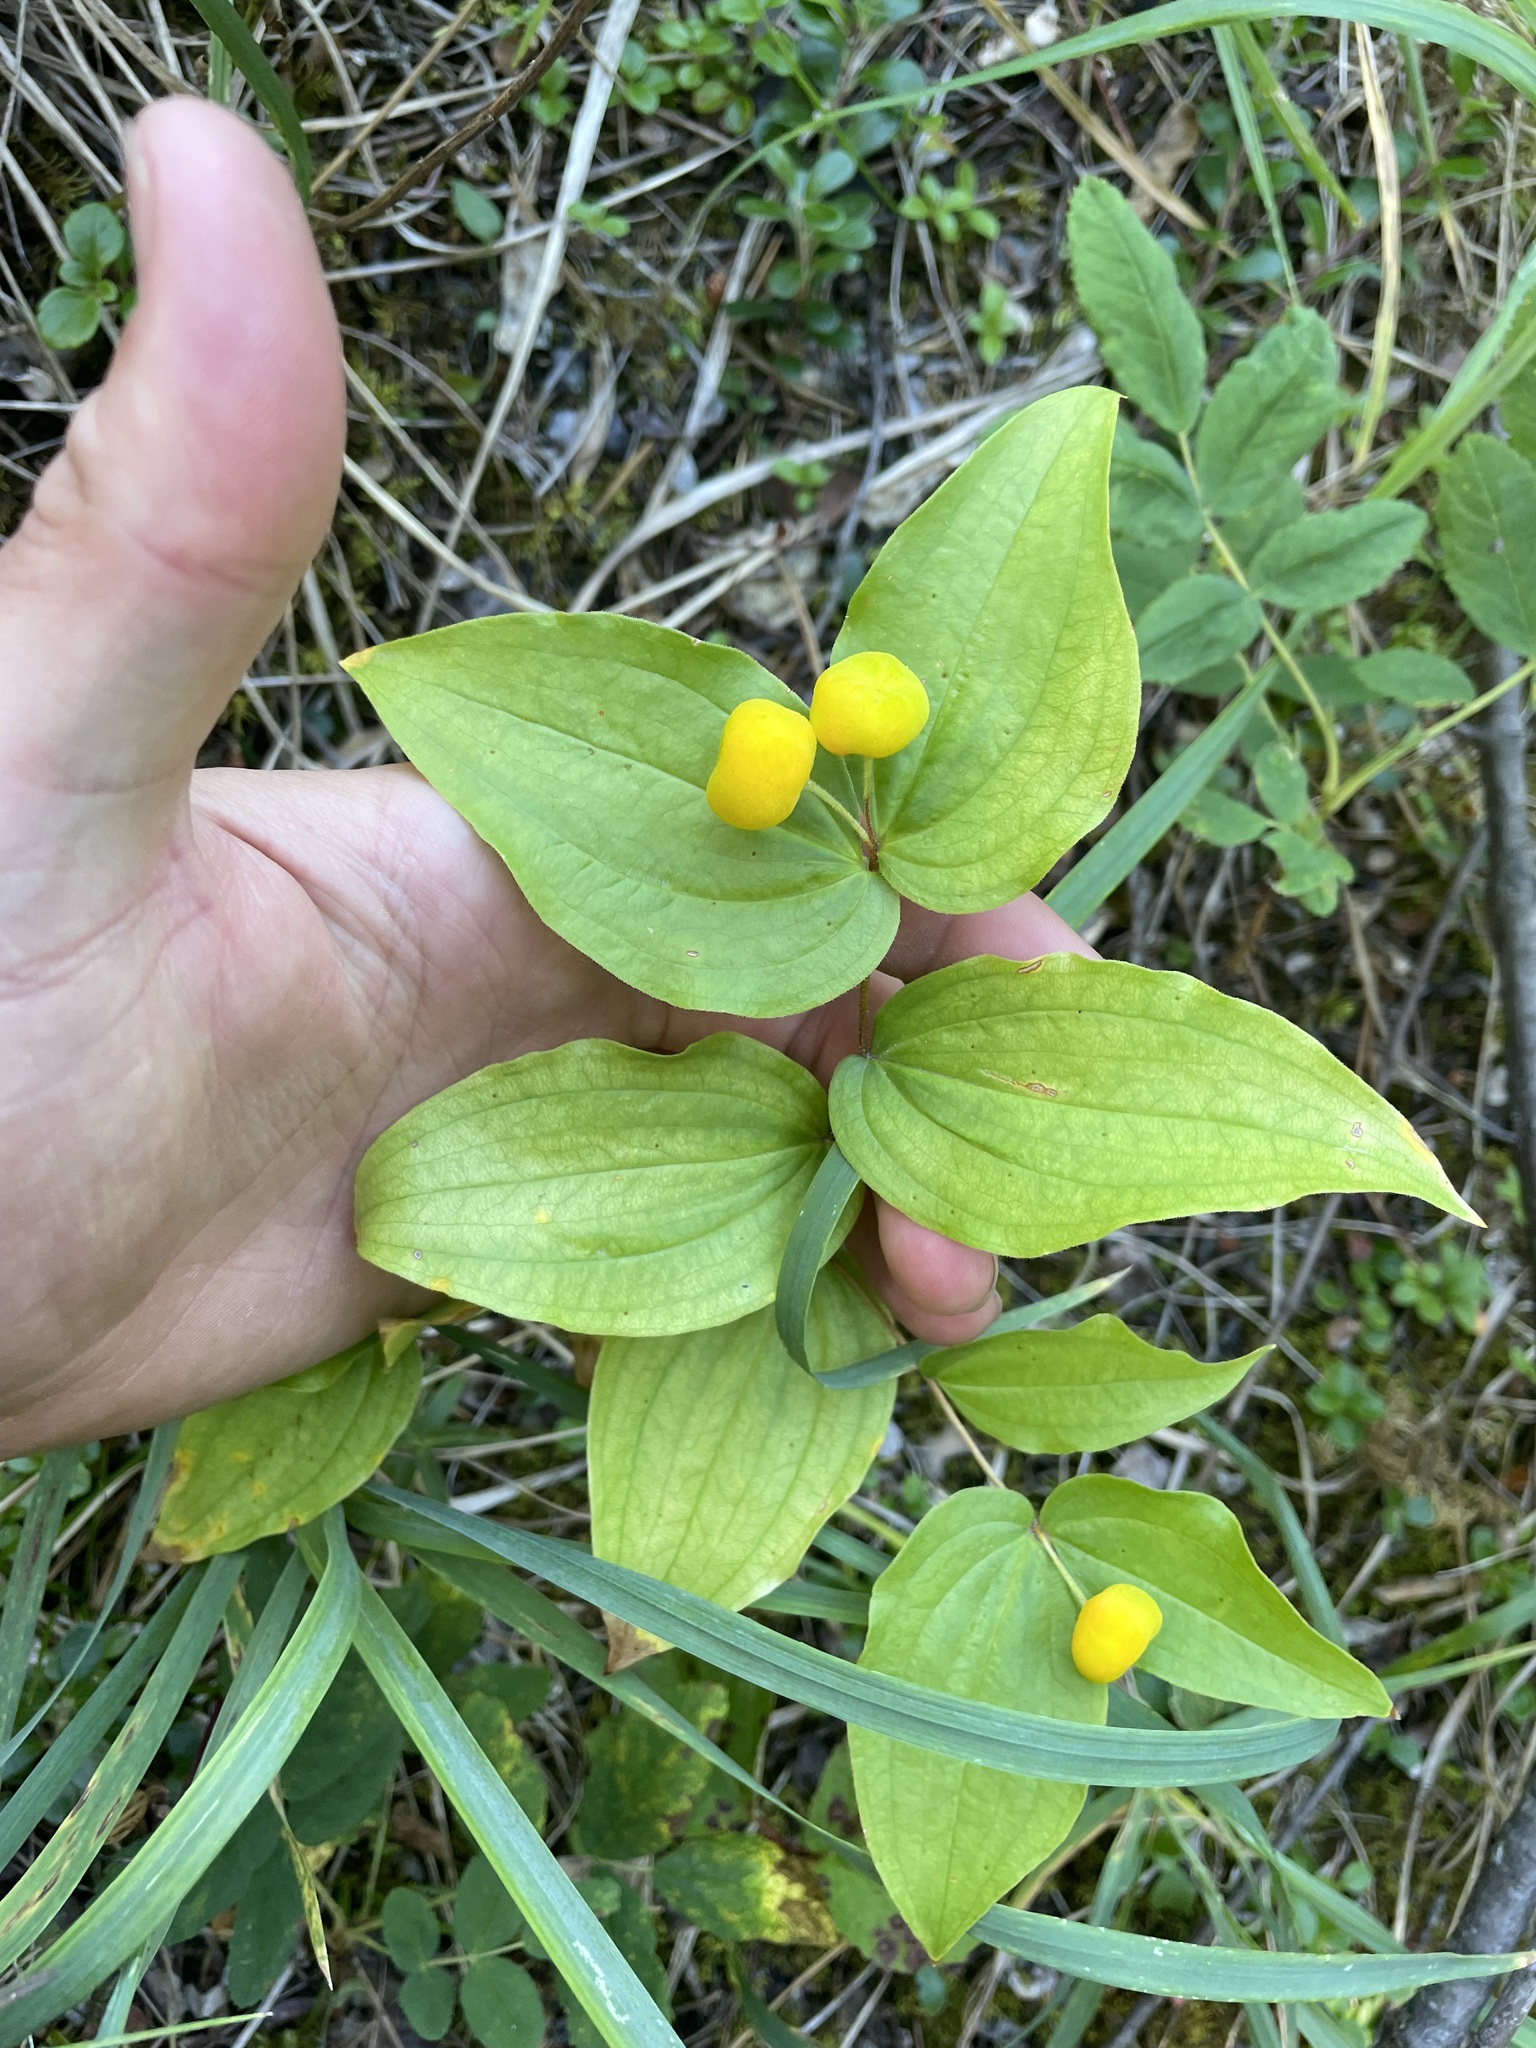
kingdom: Plantae
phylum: Tracheophyta
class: Liliopsida
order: Liliales
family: Liliaceae
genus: Prosartes
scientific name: Prosartes trachycarpa
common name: Rough-fruit fairy-bells
